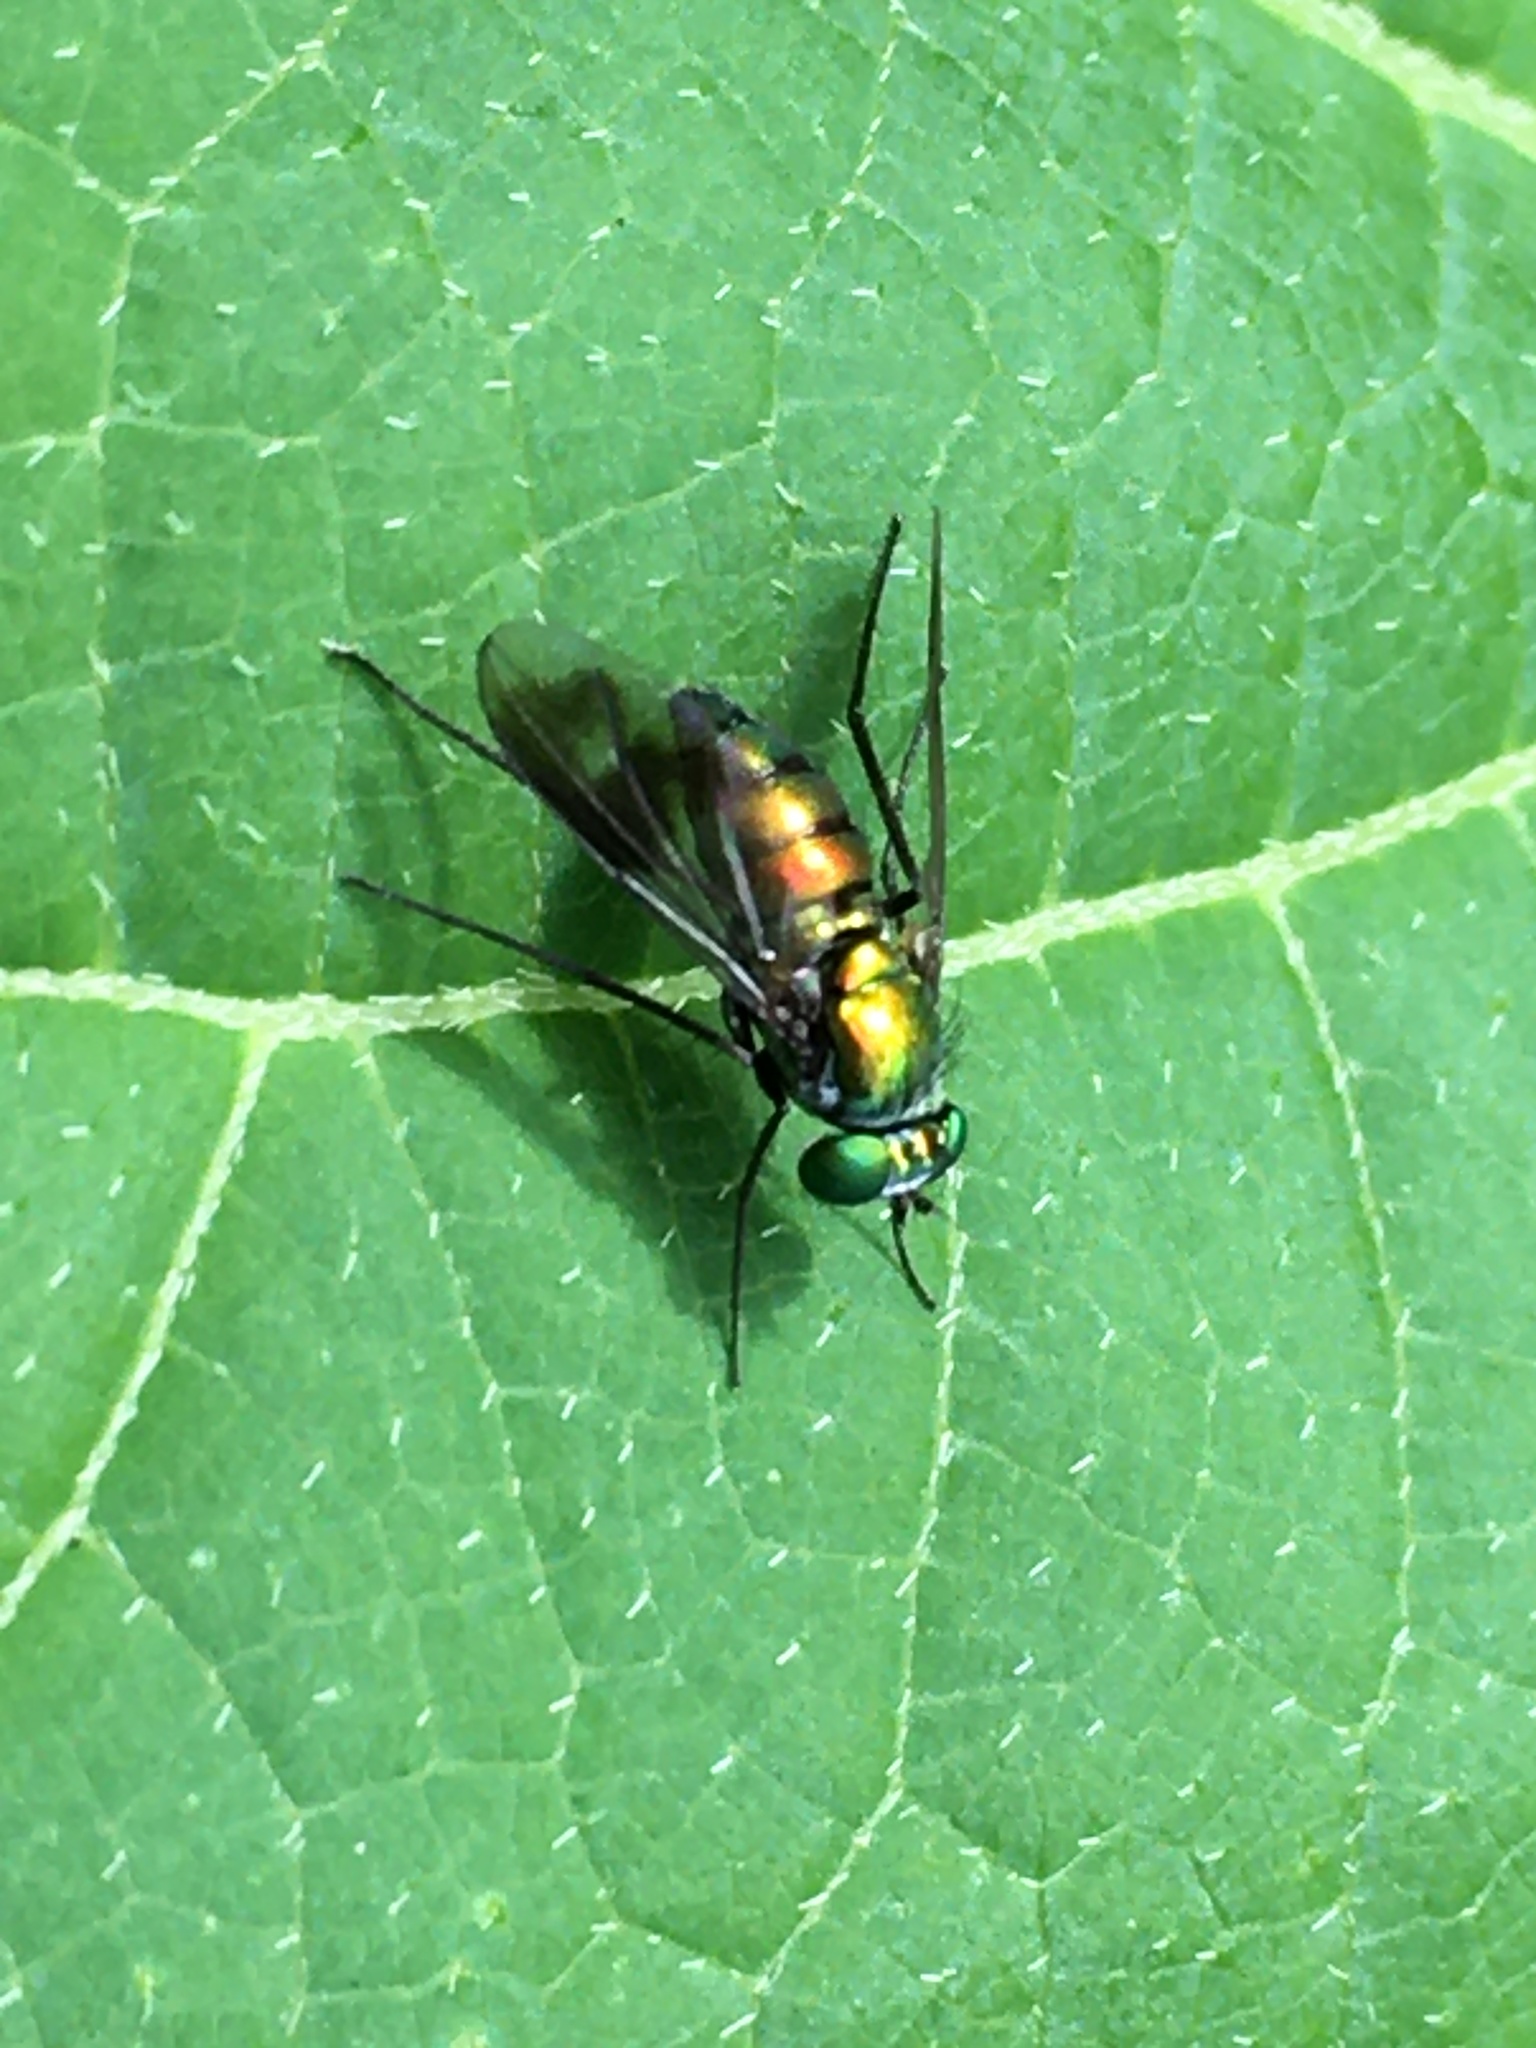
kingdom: Animalia
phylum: Arthropoda
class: Insecta
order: Diptera
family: Dolichopodidae
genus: Condylostylus
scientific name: Condylostylus patibulatus
